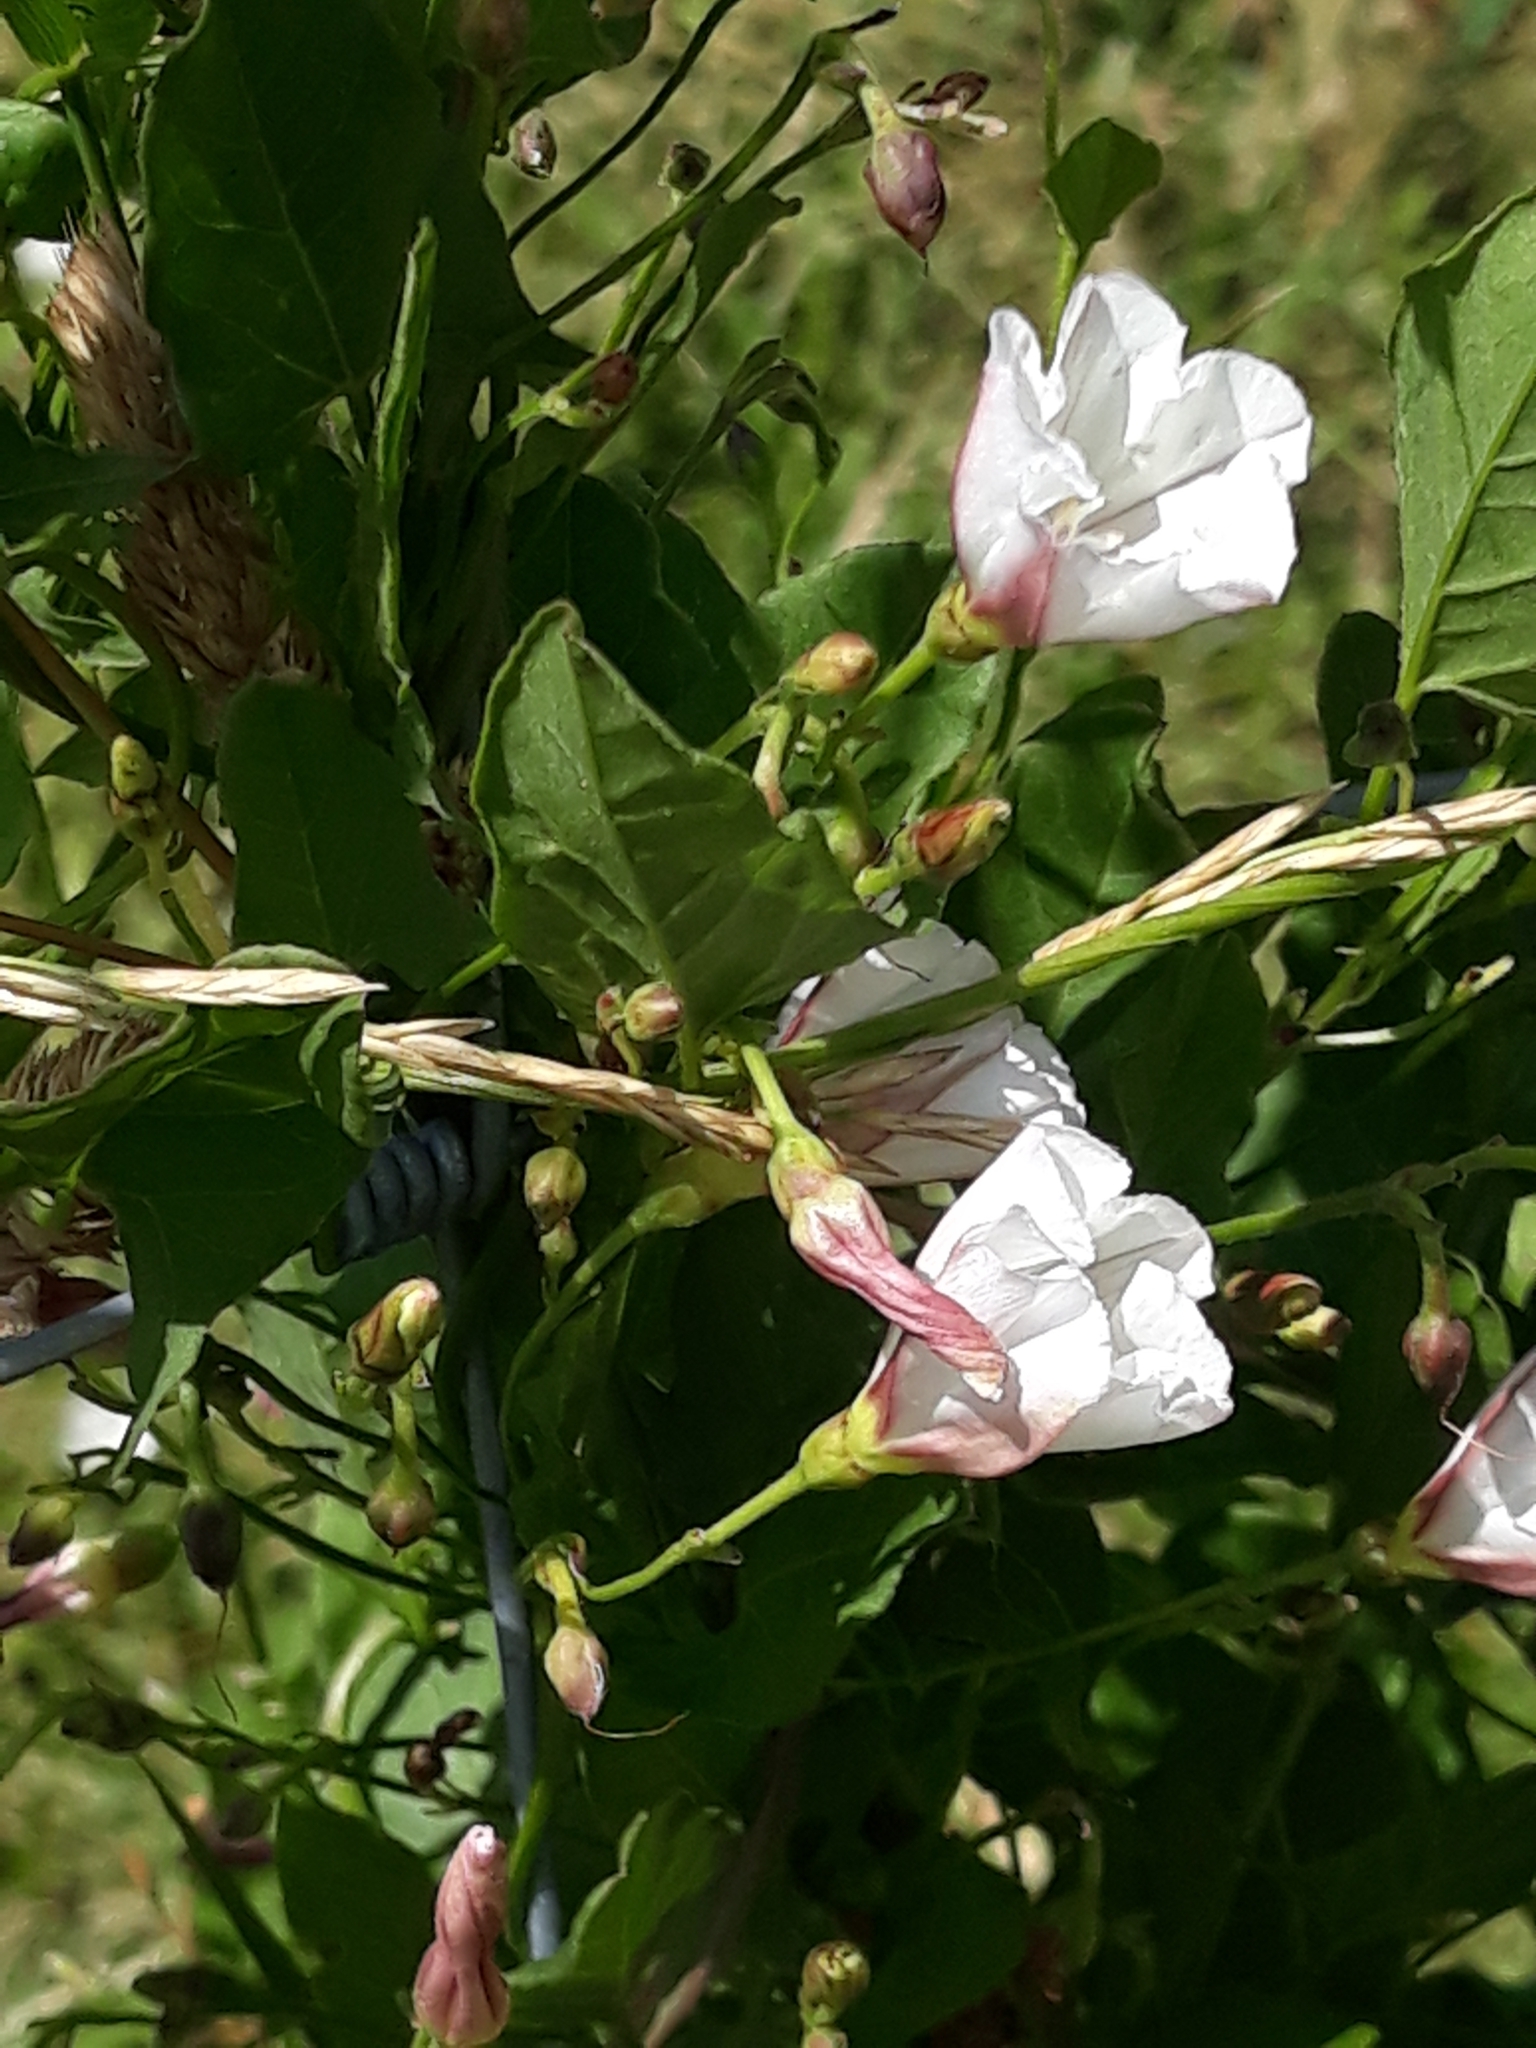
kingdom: Plantae
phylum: Tracheophyta
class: Magnoliopsida
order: Solanales
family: Convolvulaceae
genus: Convolvulus
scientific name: Convolvulus arvensis
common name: Field bindweed
